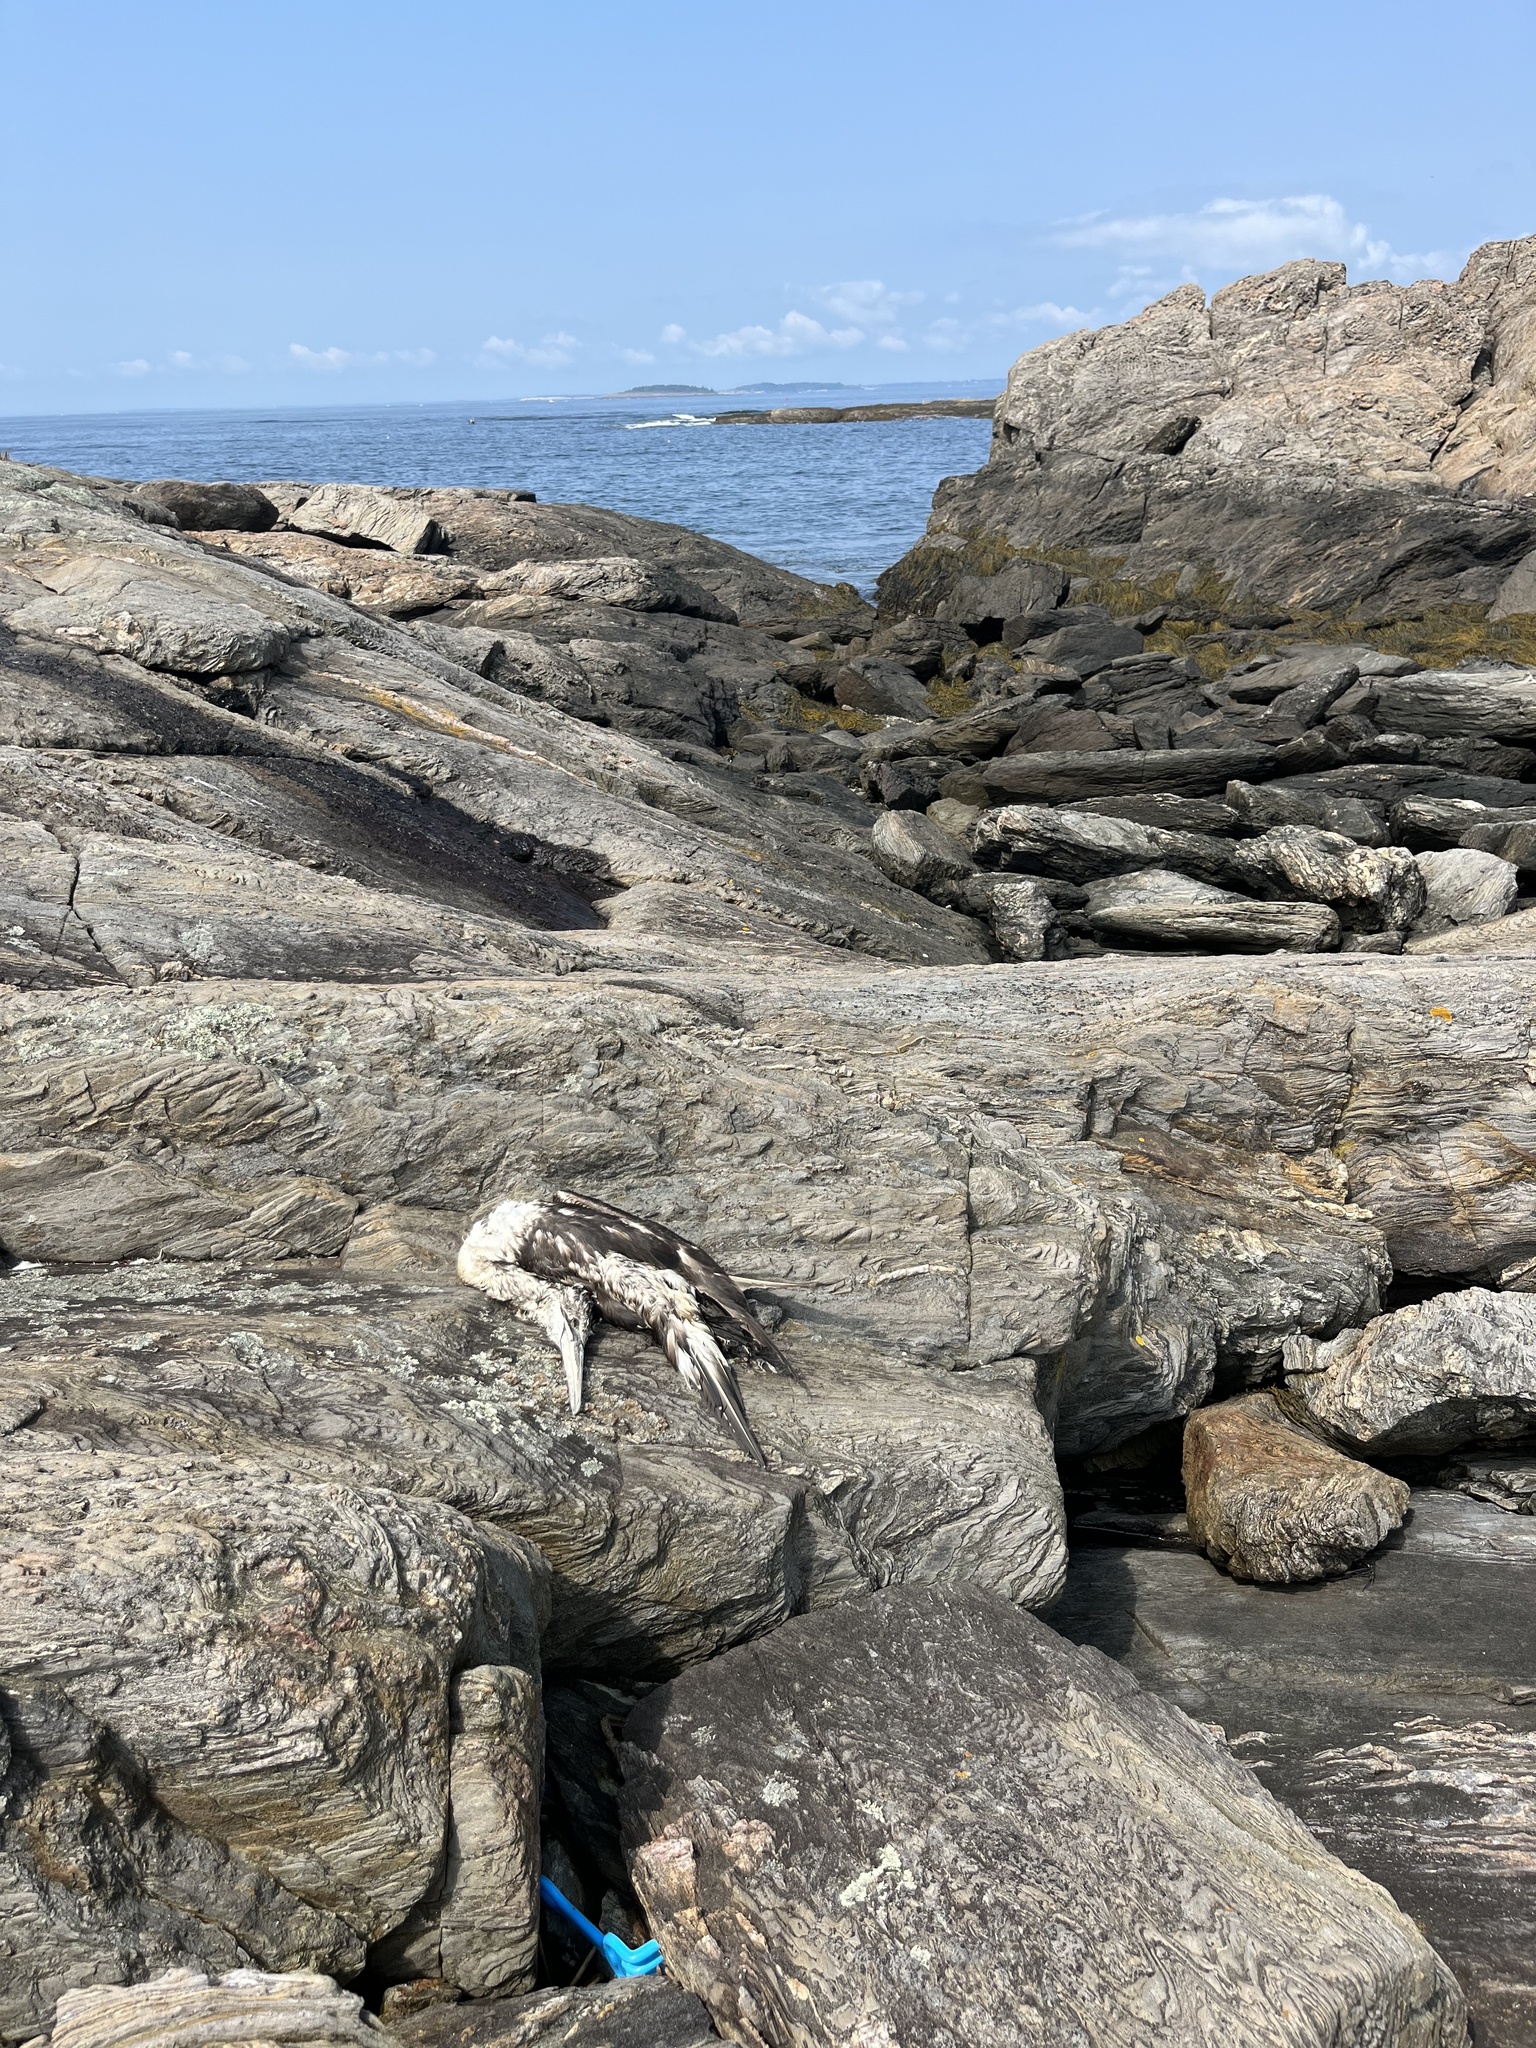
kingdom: Animalia
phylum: Chordata
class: Aves
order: Suliformes
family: Sulidae
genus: Morus
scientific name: Morus bassanus
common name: Northern gannet
